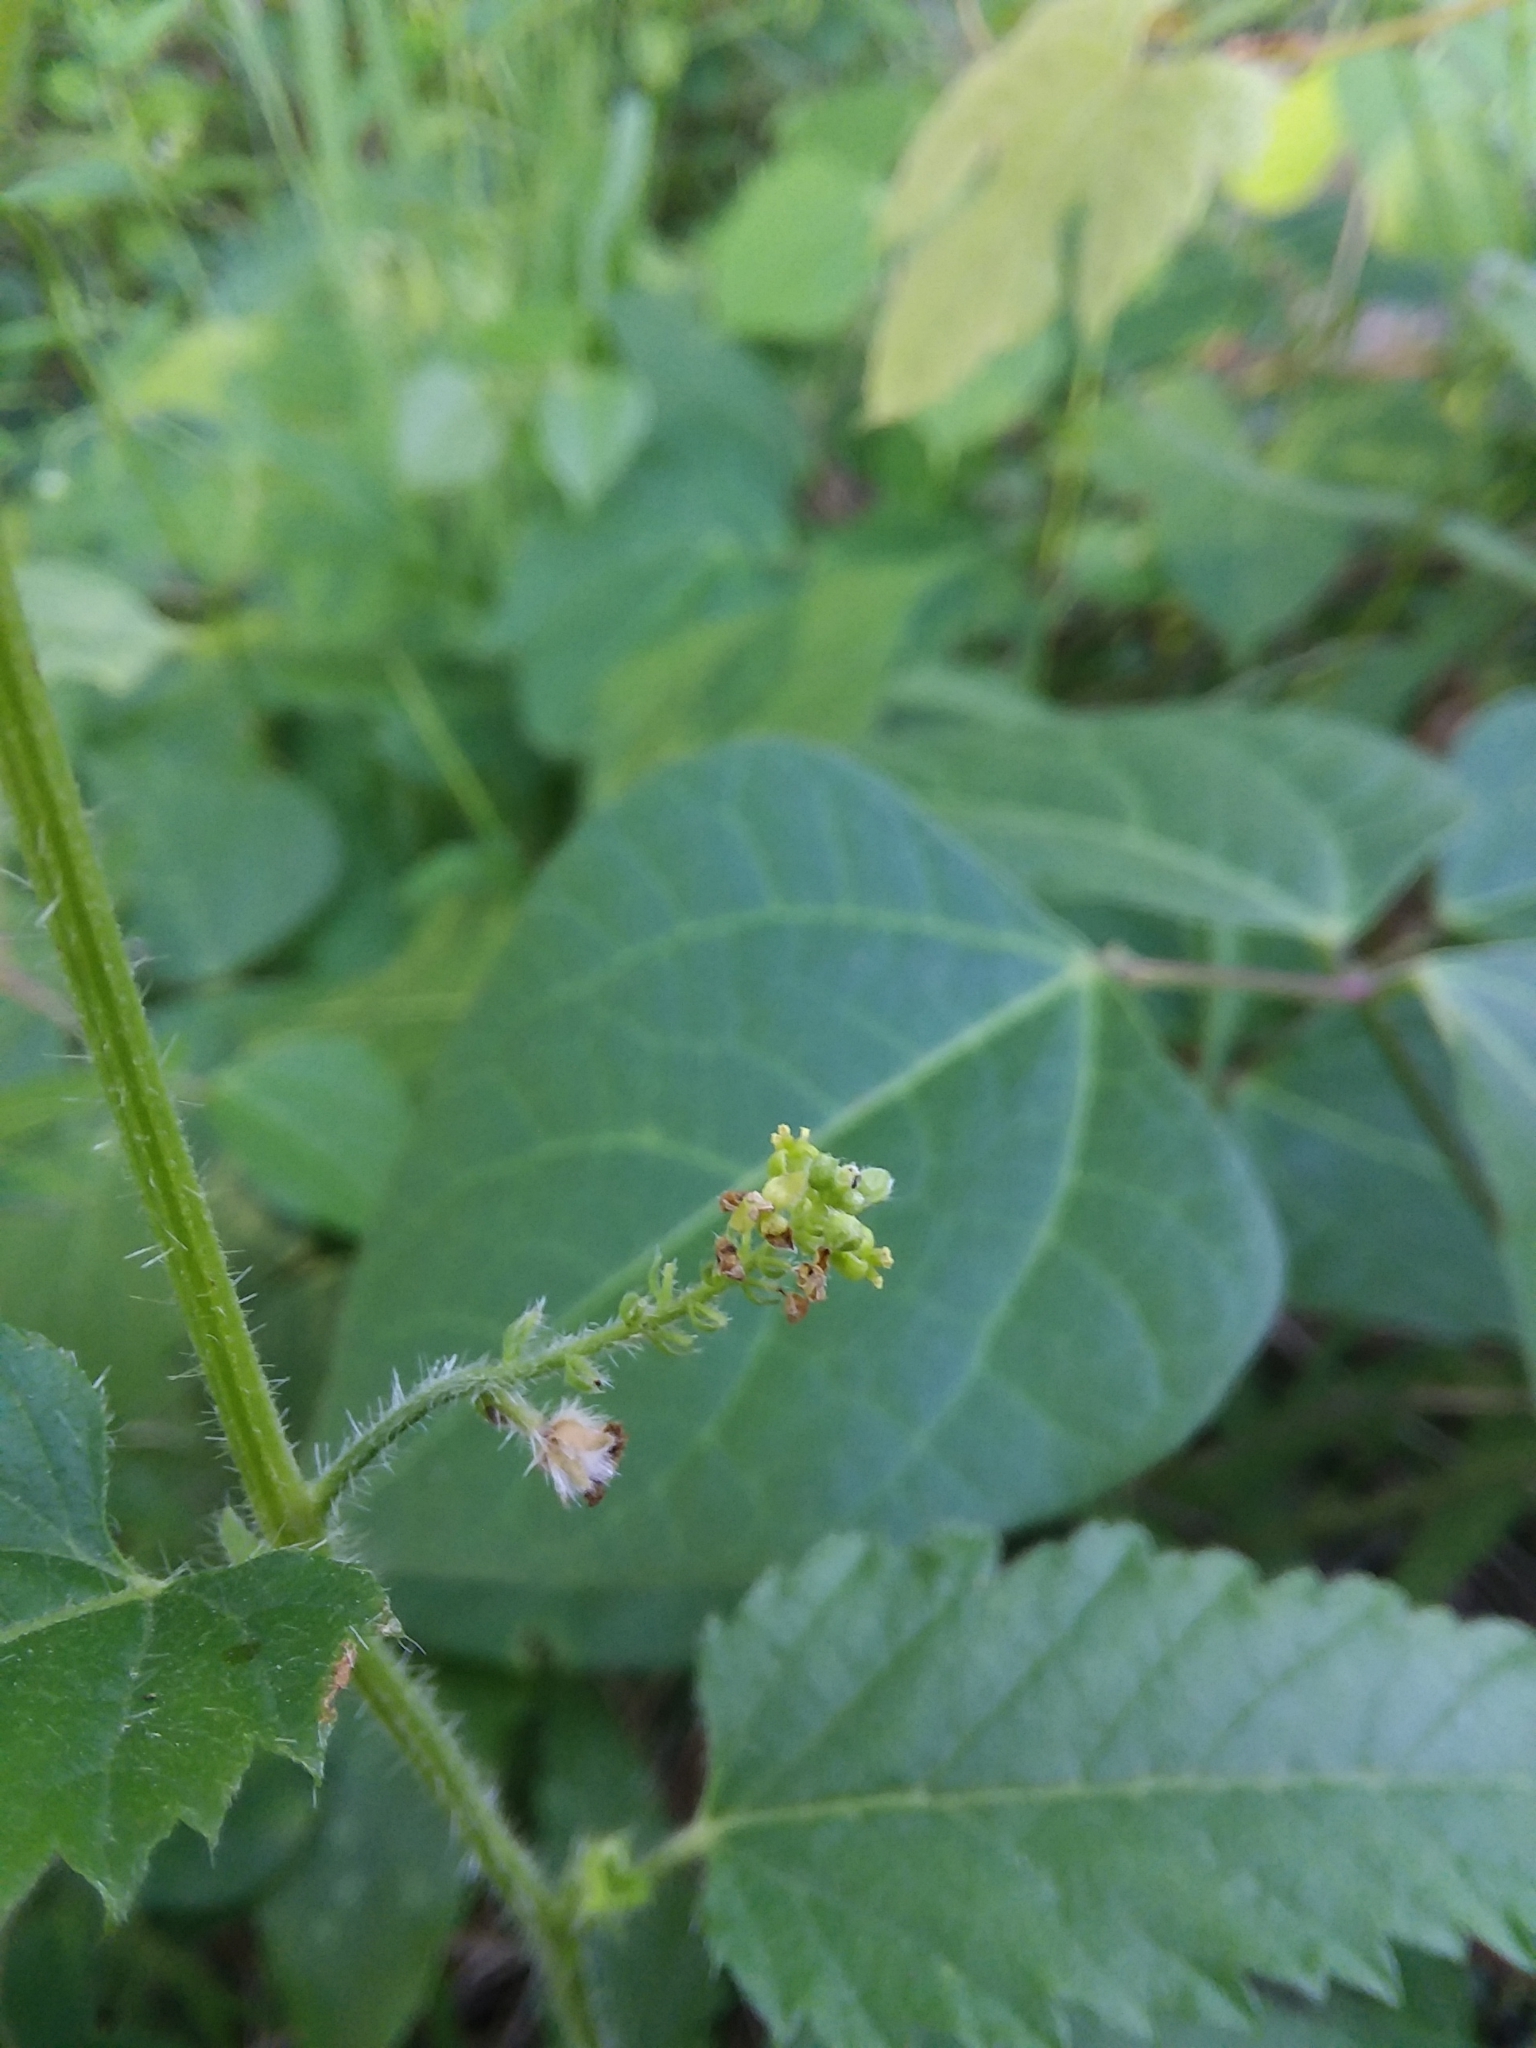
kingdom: Plantae
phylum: Tracheophyta
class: Magnoliopsida
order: Malpighiales
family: Euphorbiaceae
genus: Tragia
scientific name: Tragia urticifolia
